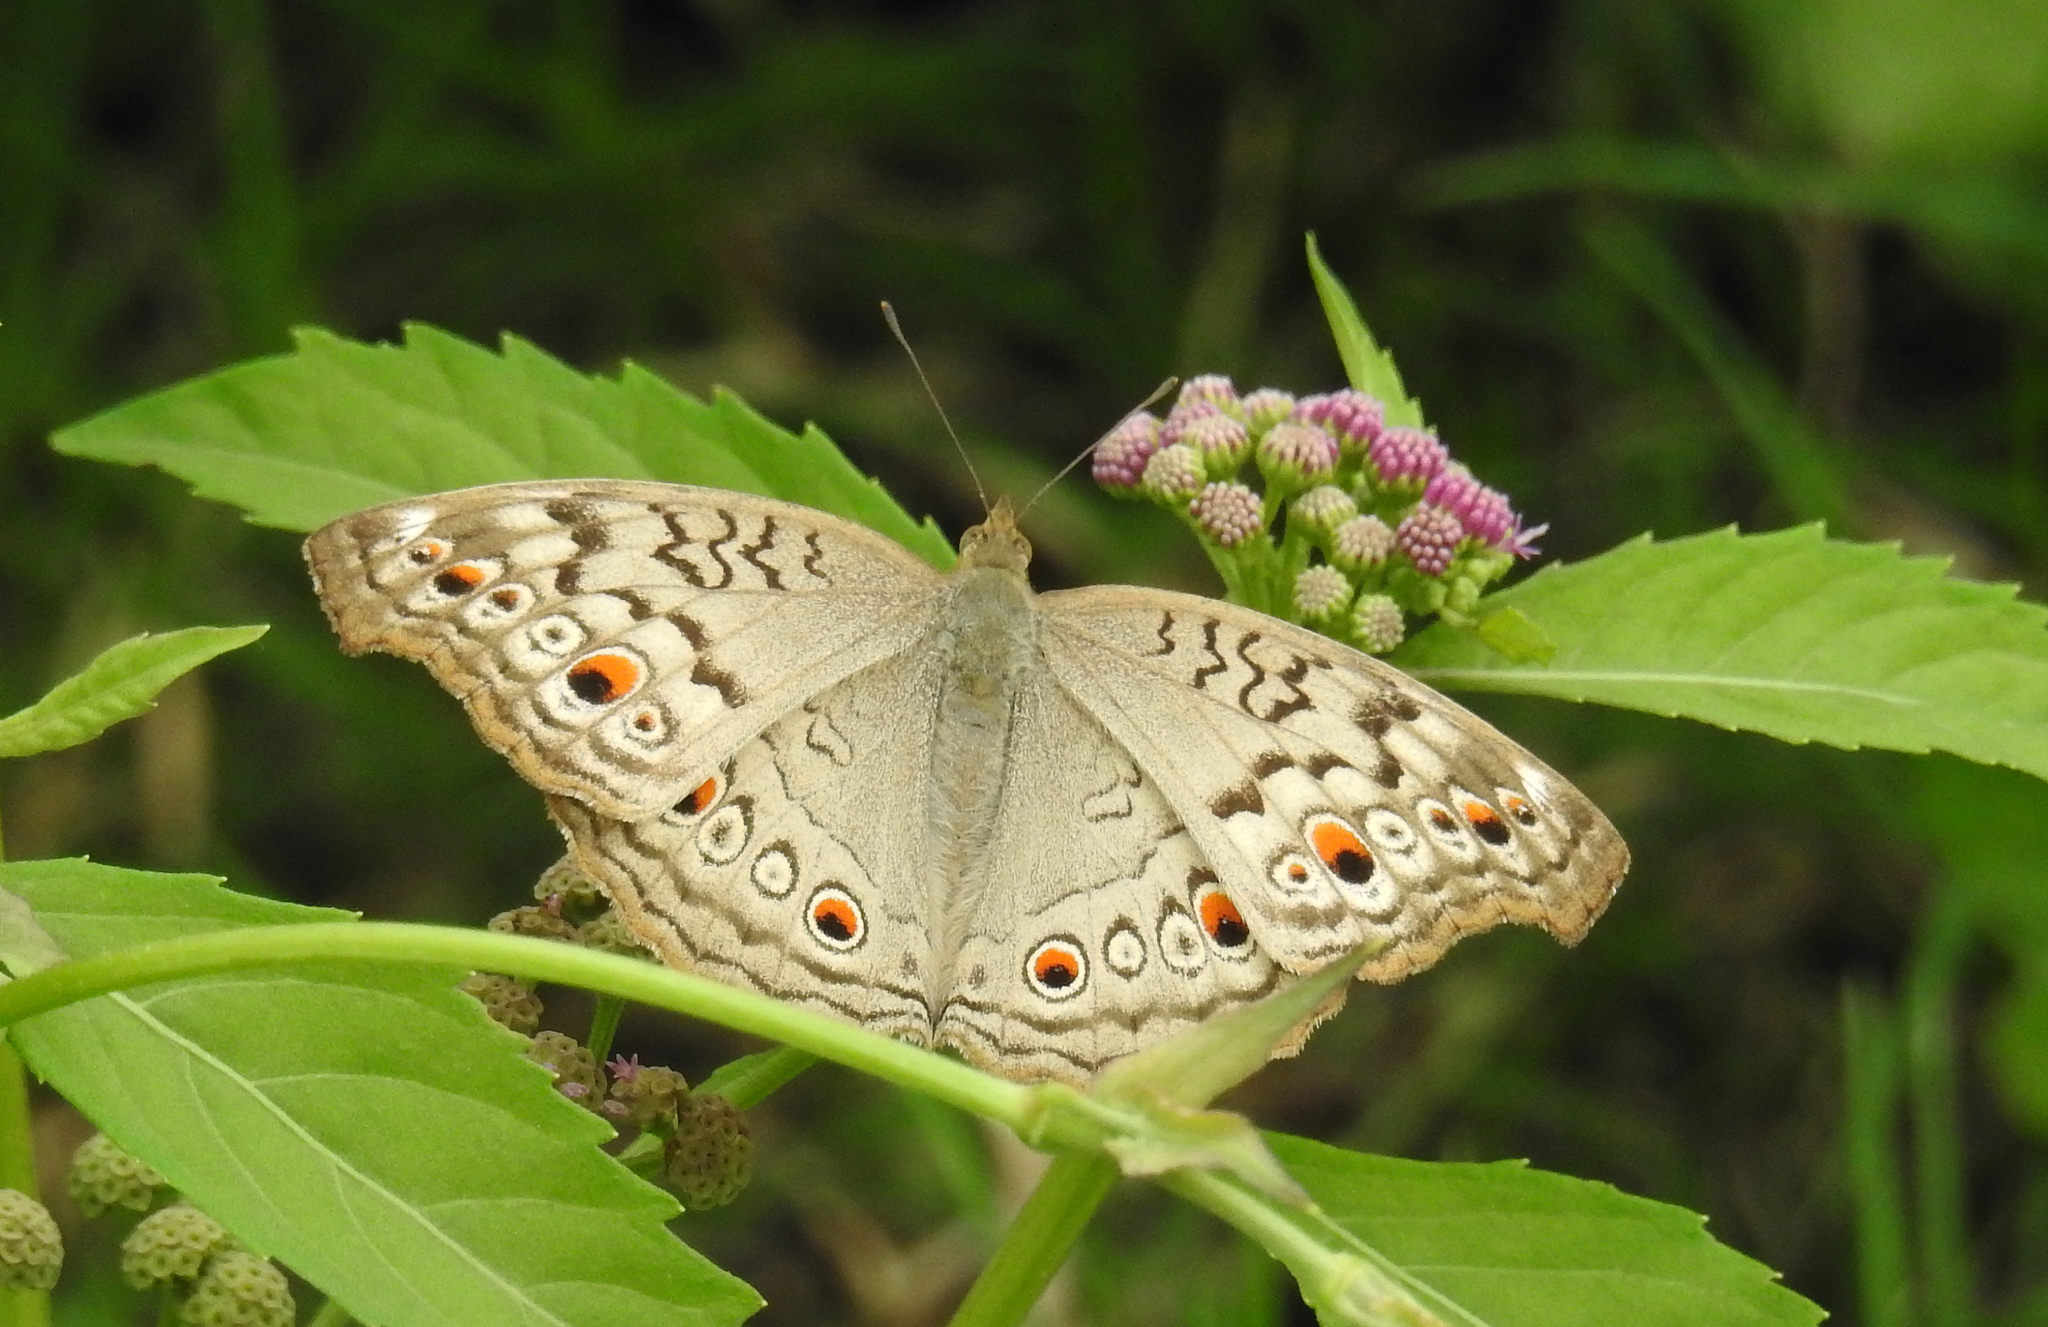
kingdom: Animalia
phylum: Arthropoda
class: Insecta
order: Lepidoptera
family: Nymphalidae
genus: Junonia
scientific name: Junonia atlites
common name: Grey pansy
